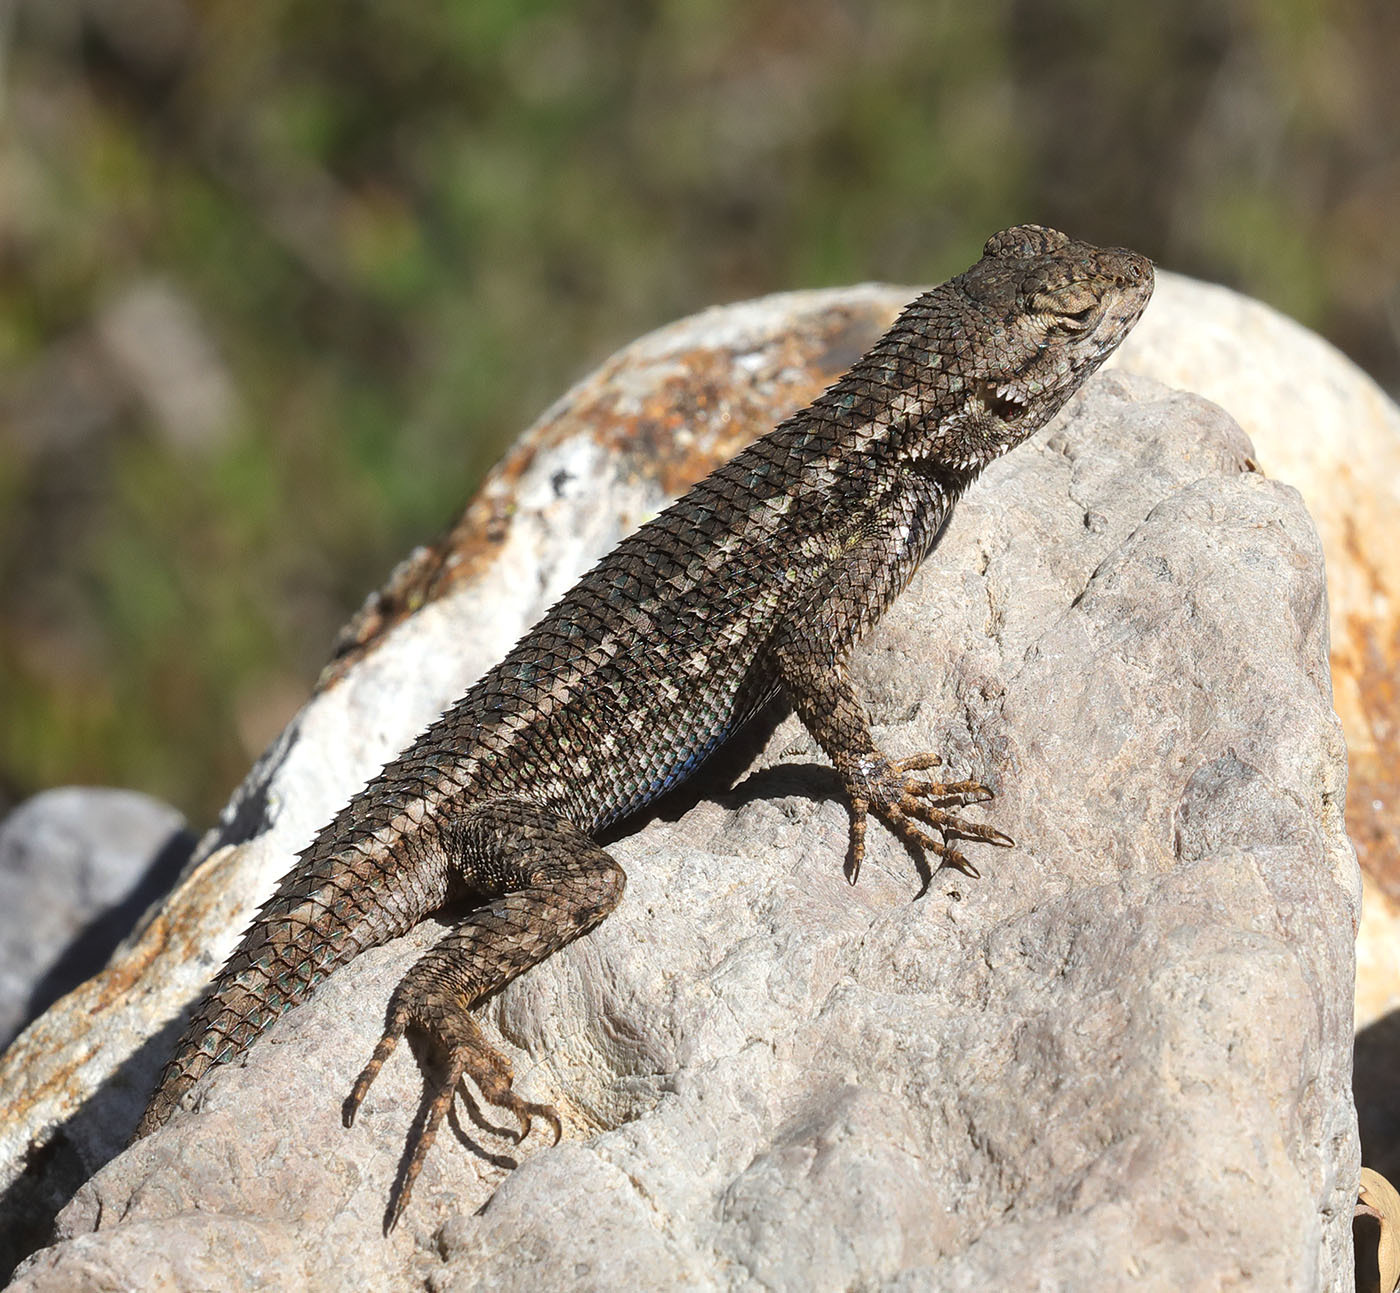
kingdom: Animalia
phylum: Chordata
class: Squamata
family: Phrynosomatidae
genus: Sceloporus
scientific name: Sceloporus occidentalis
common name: Western fence lizard
